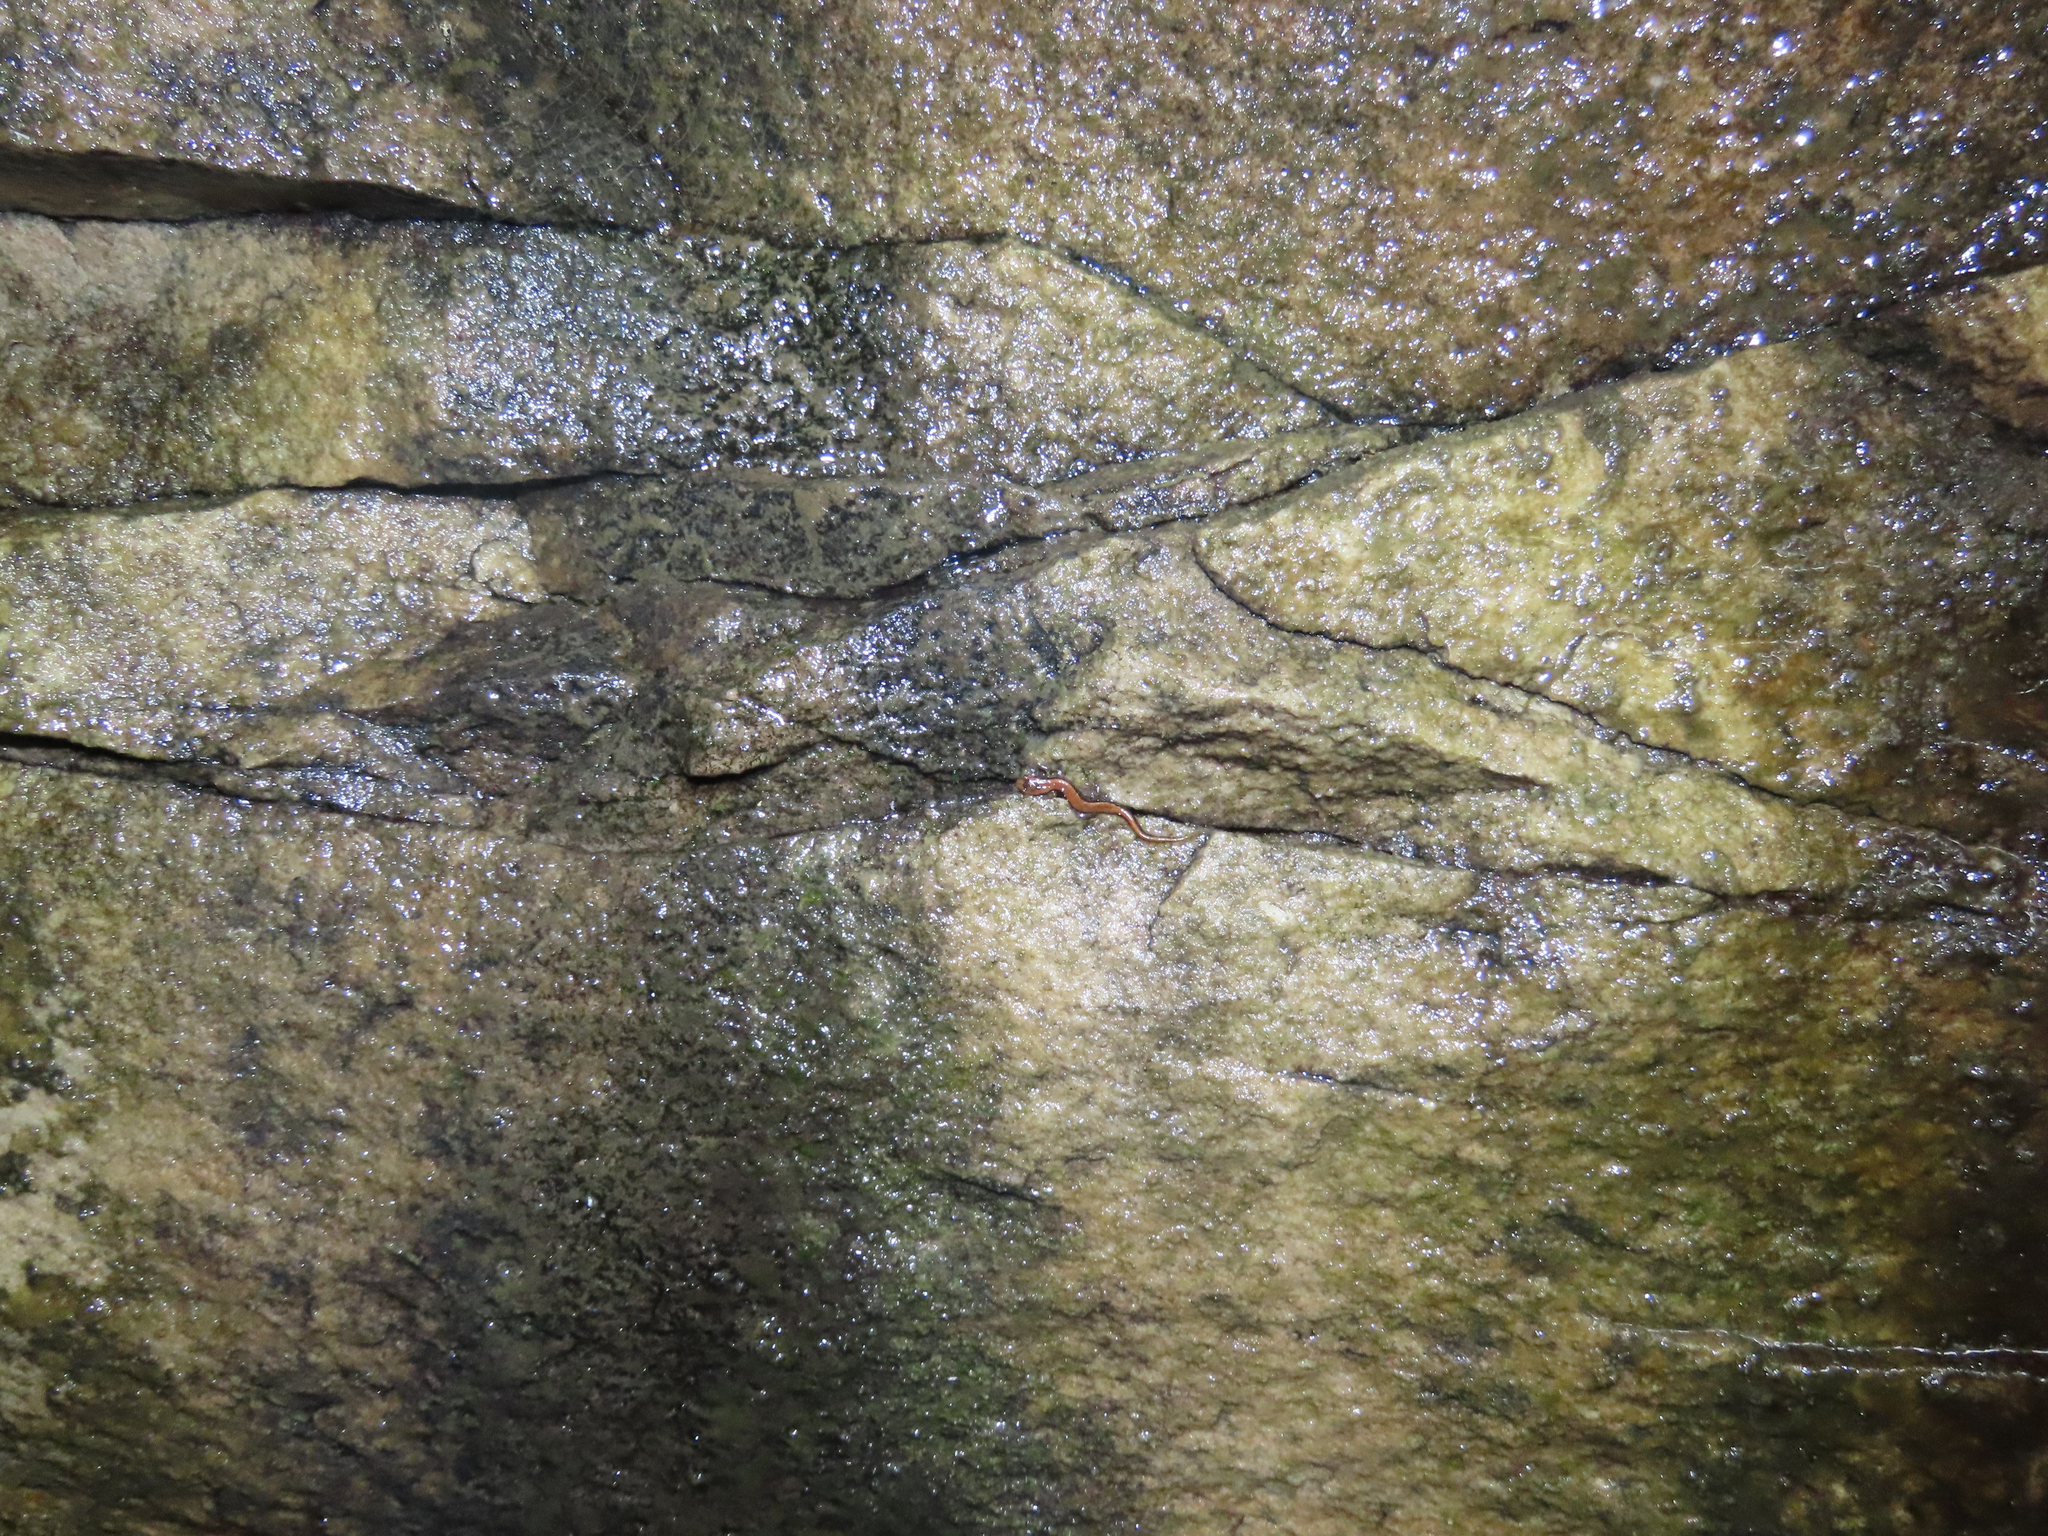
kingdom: Animalia
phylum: Chordata
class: Amphibia
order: Caudata
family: Plethodontidae
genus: Desmognathus
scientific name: Desmognathus ochrophaeus
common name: Allegheny mountain dusky salamander
